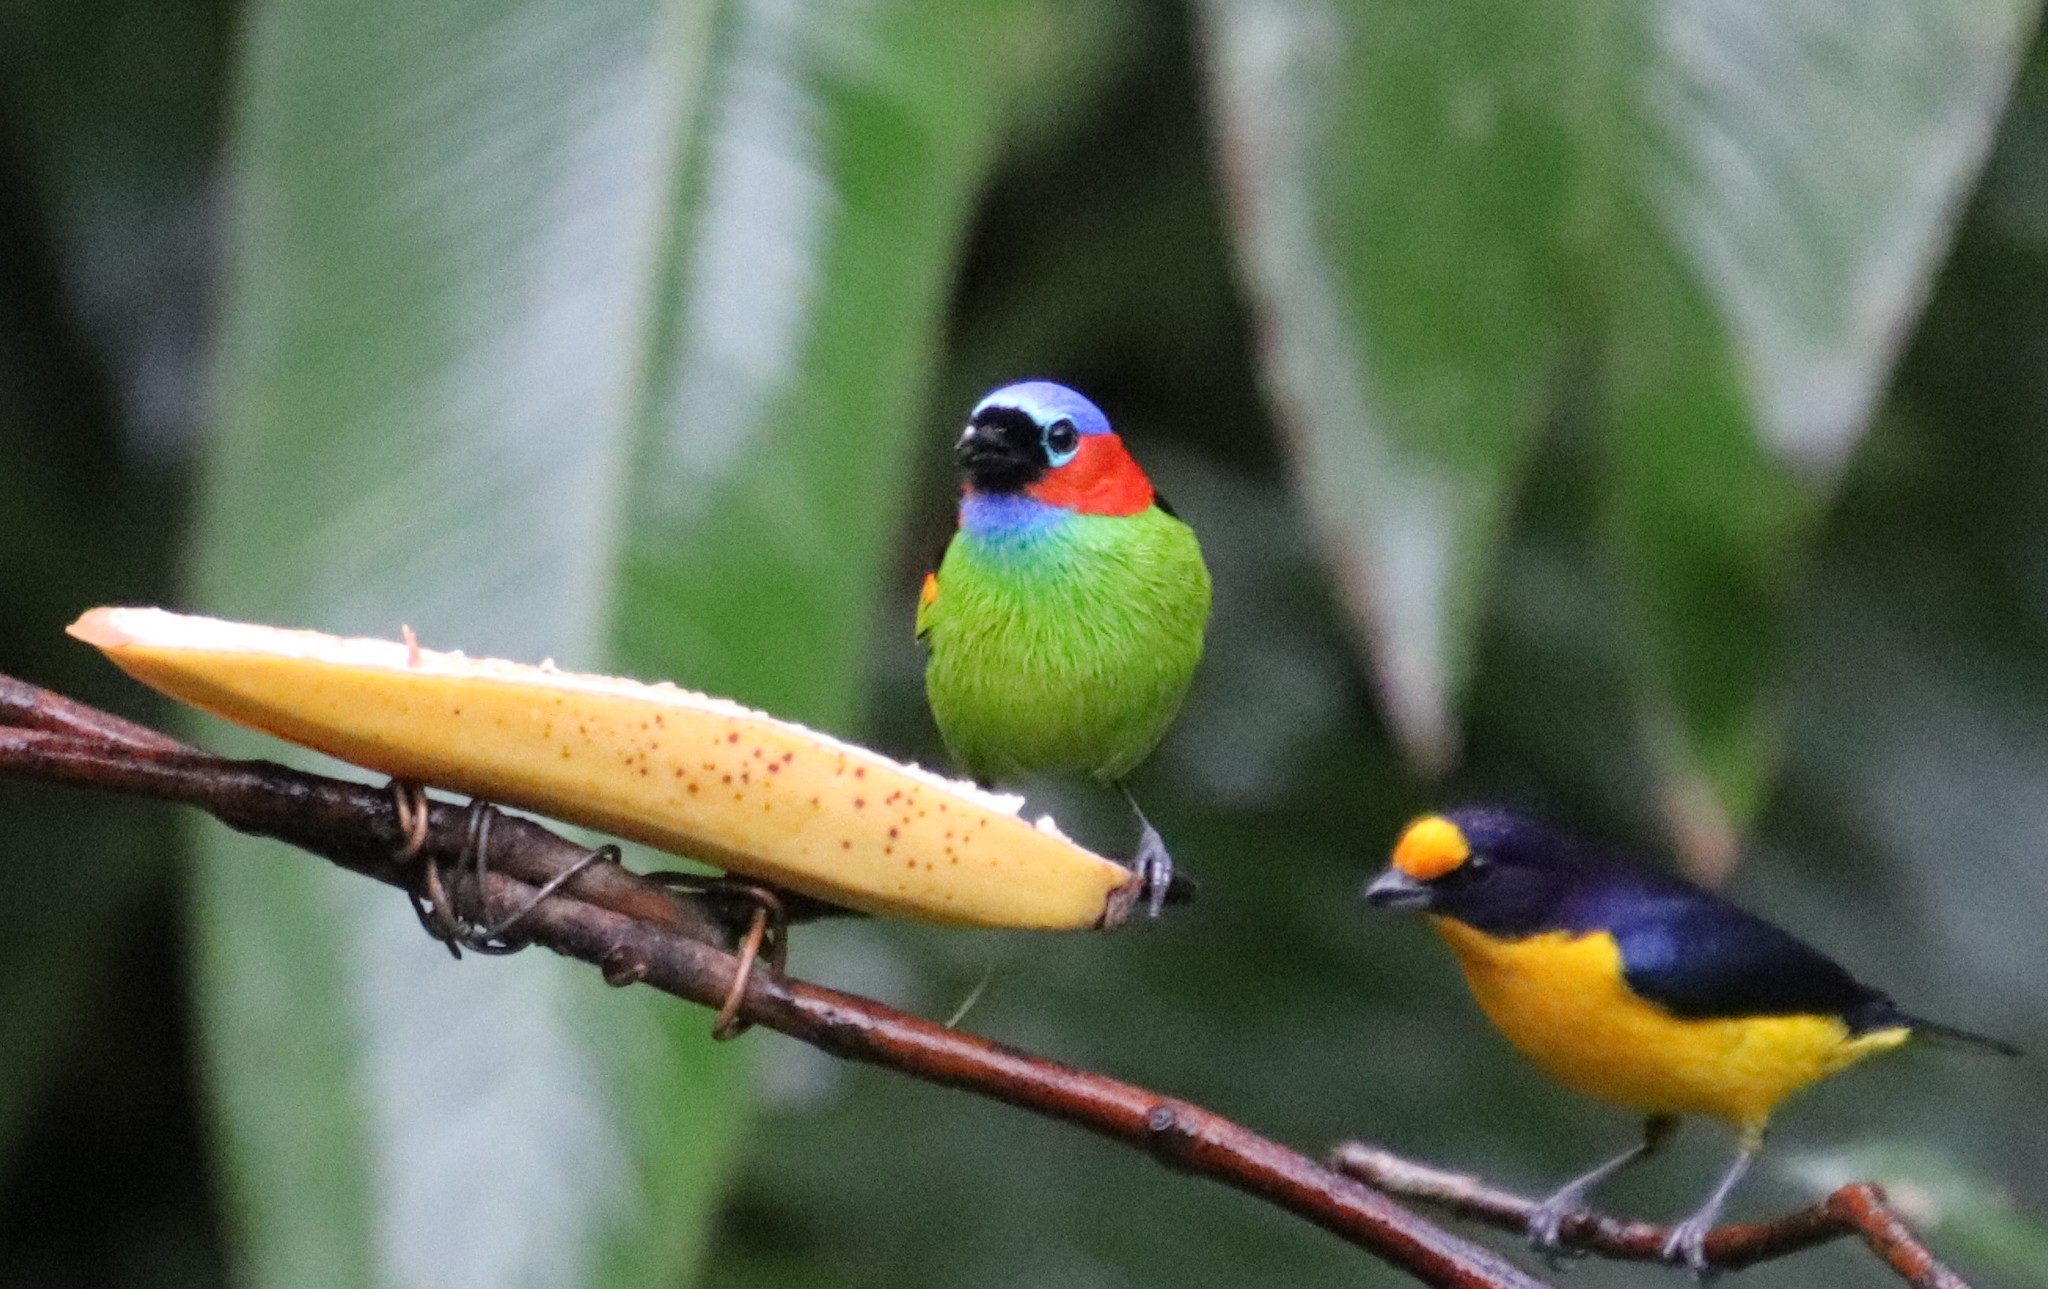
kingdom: Animalia
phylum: Chordata
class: Aves
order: Passeriformes
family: Thraupidae
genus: Tangara
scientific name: Tangara cyanocephala
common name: Red-necked tanager
